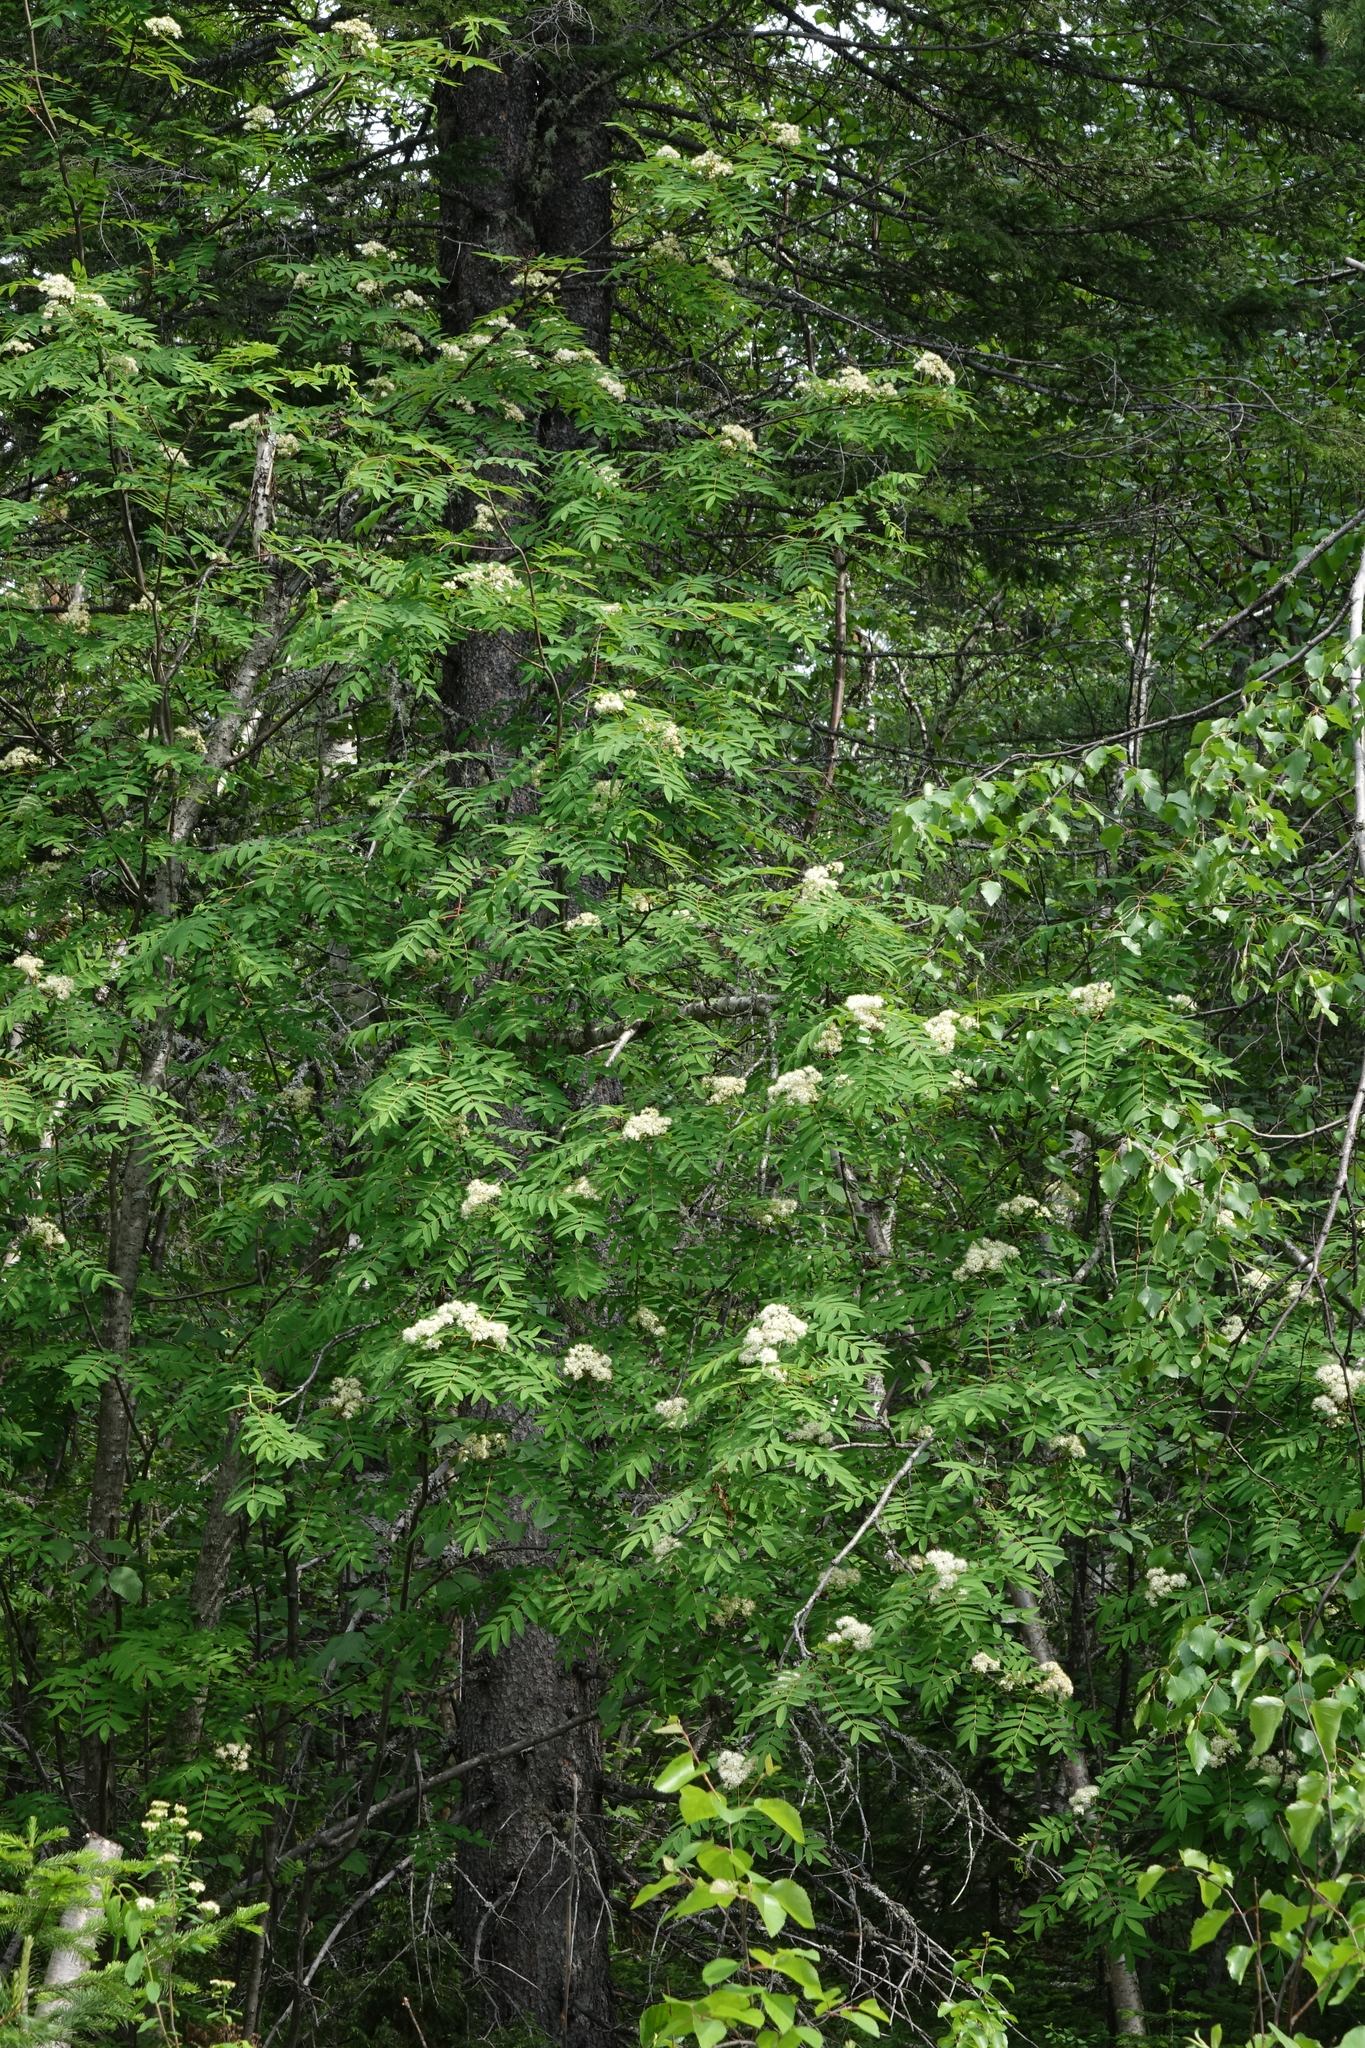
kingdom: Plantae
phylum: Tracheophyta
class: Magnoliopsida
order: Rosales
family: Rosaceae
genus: Sorbus
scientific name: Sorbus aucuparia
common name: Rowan
